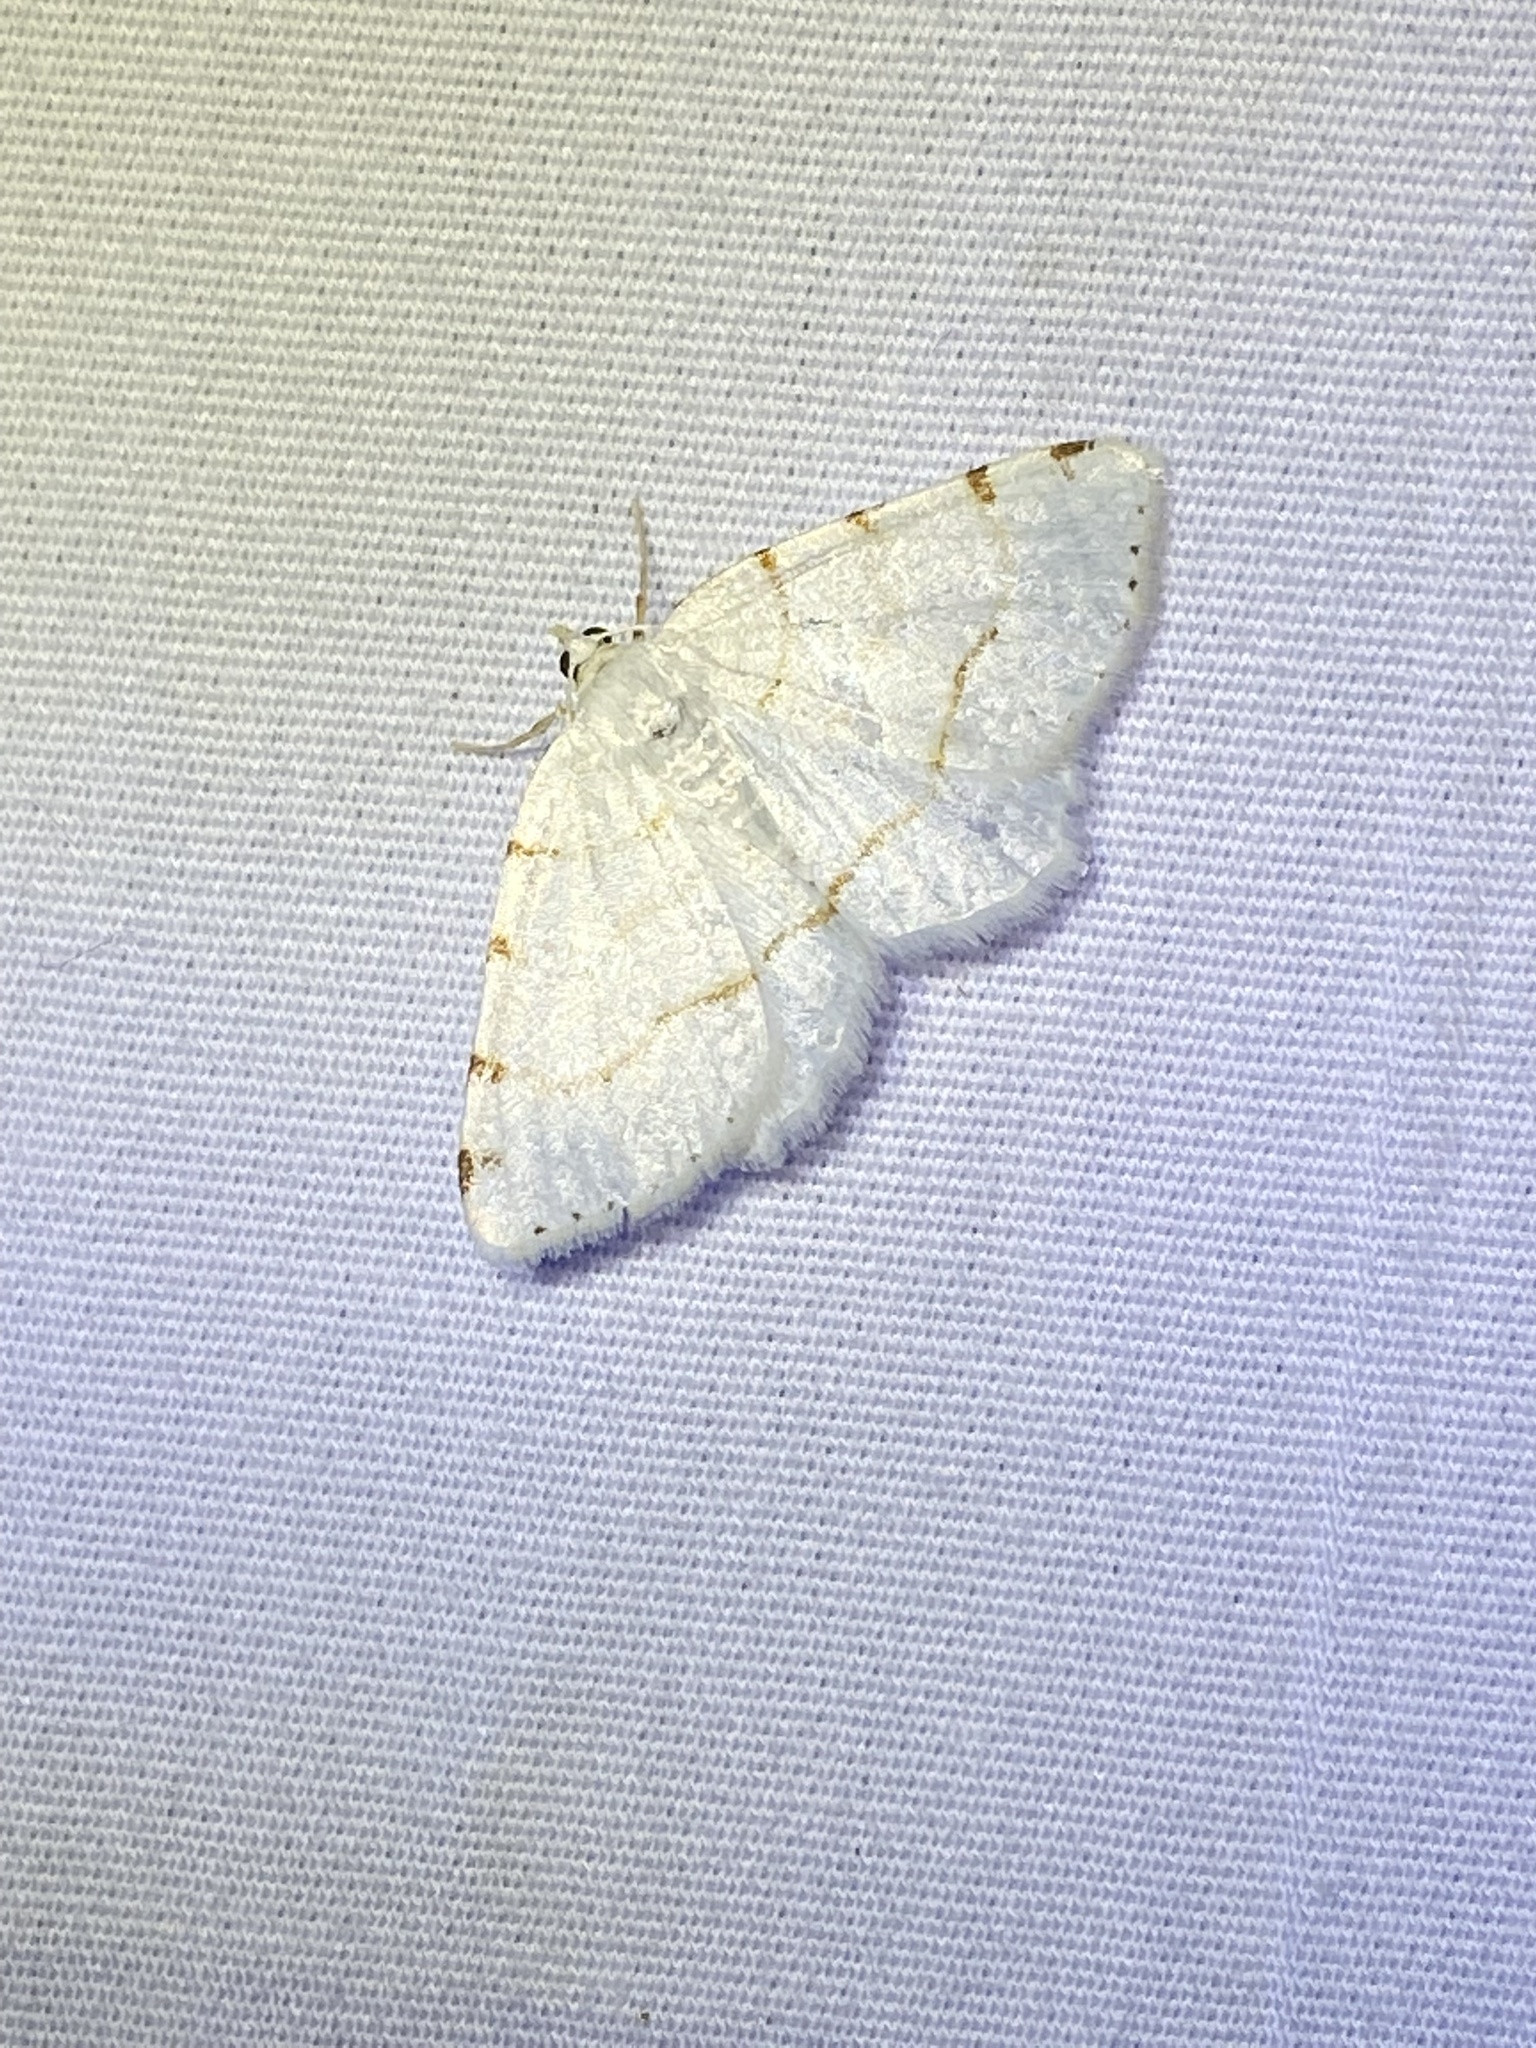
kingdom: Animalia
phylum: Arthropoda
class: Insecta
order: Lepidoptera
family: Geometridae
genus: Macaria
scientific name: Macaria pustularia
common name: Lesser maple spanworm moth
